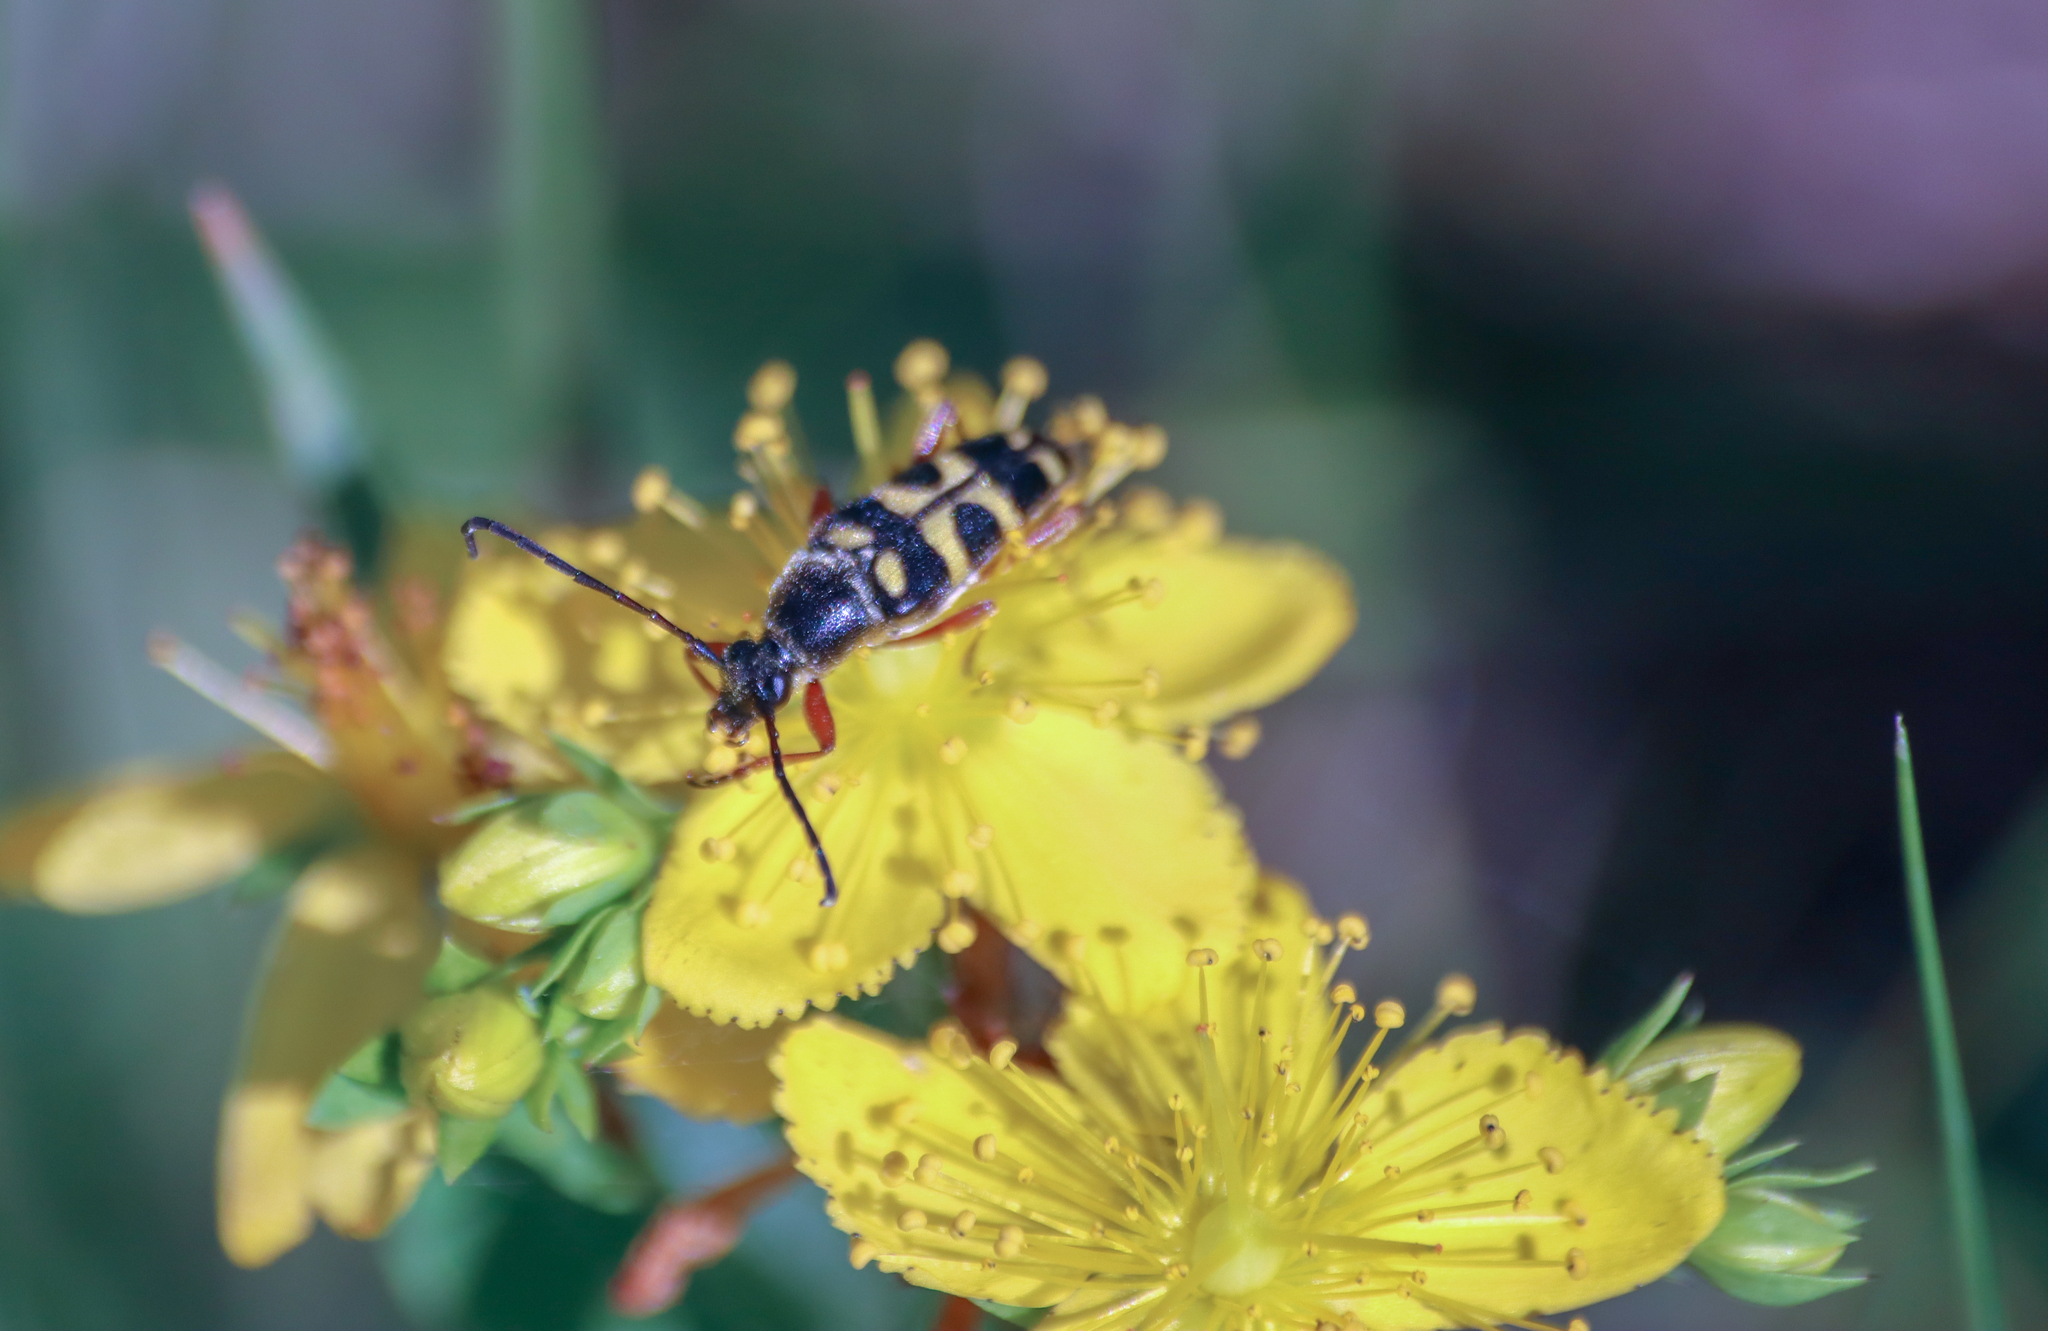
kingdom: Animalia
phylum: Arthropoda
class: Insecta
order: Coleoptera
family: Cerambycidae
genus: Typocerus
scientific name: Typocerus velutinus
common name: Banded longhorn beetle
